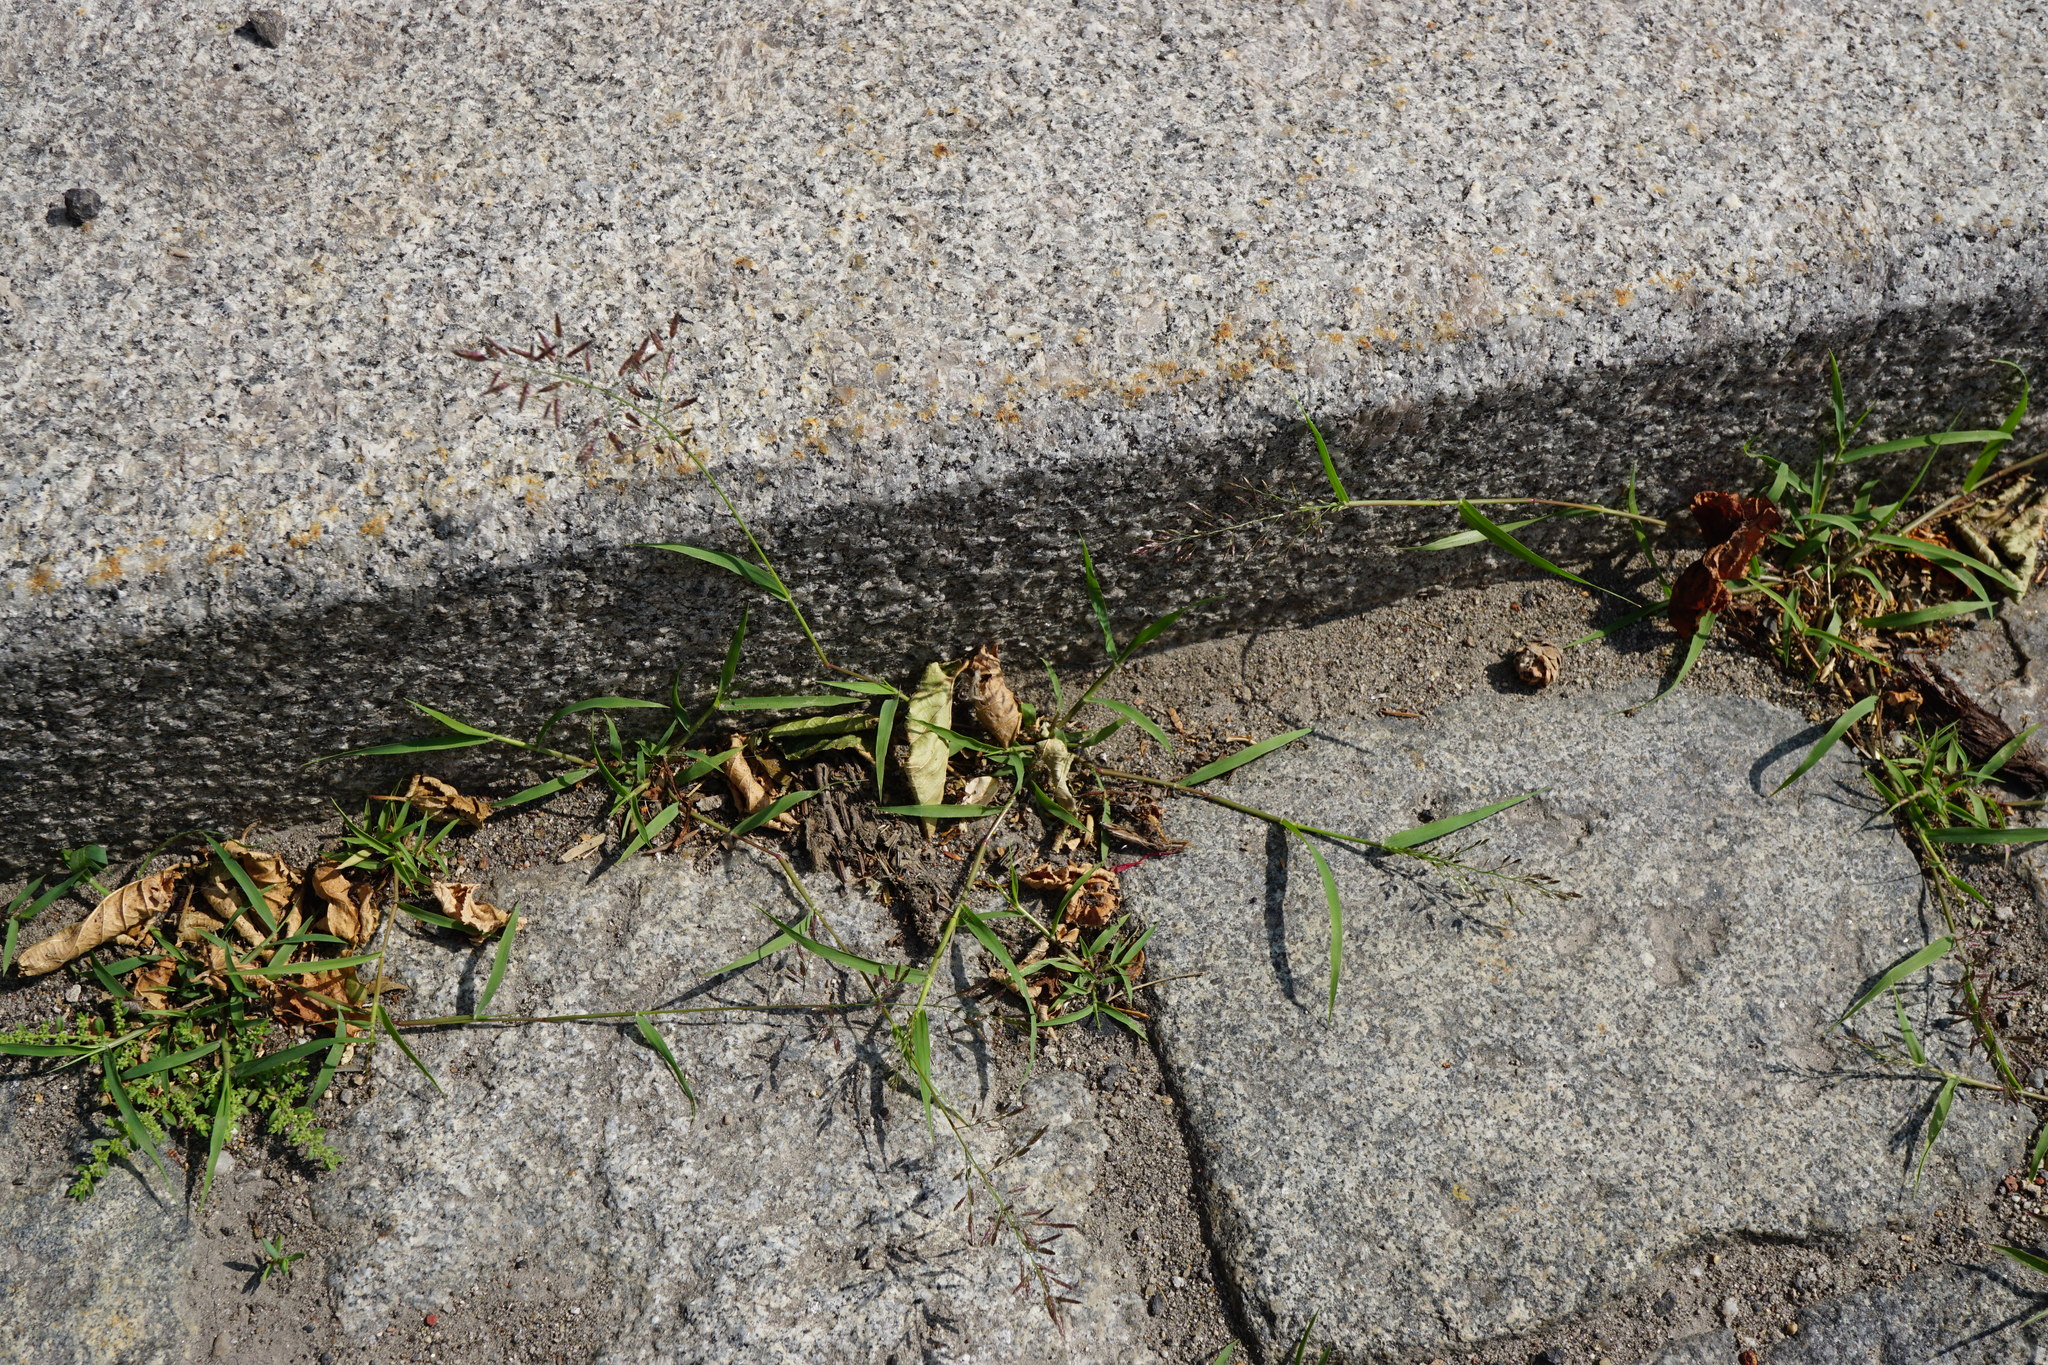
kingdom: Plantae
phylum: Tracheophyta
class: Liliopsida
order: Poales
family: Poaceae
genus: Eragrostis
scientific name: Eragrostis minor
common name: Small love-grass
